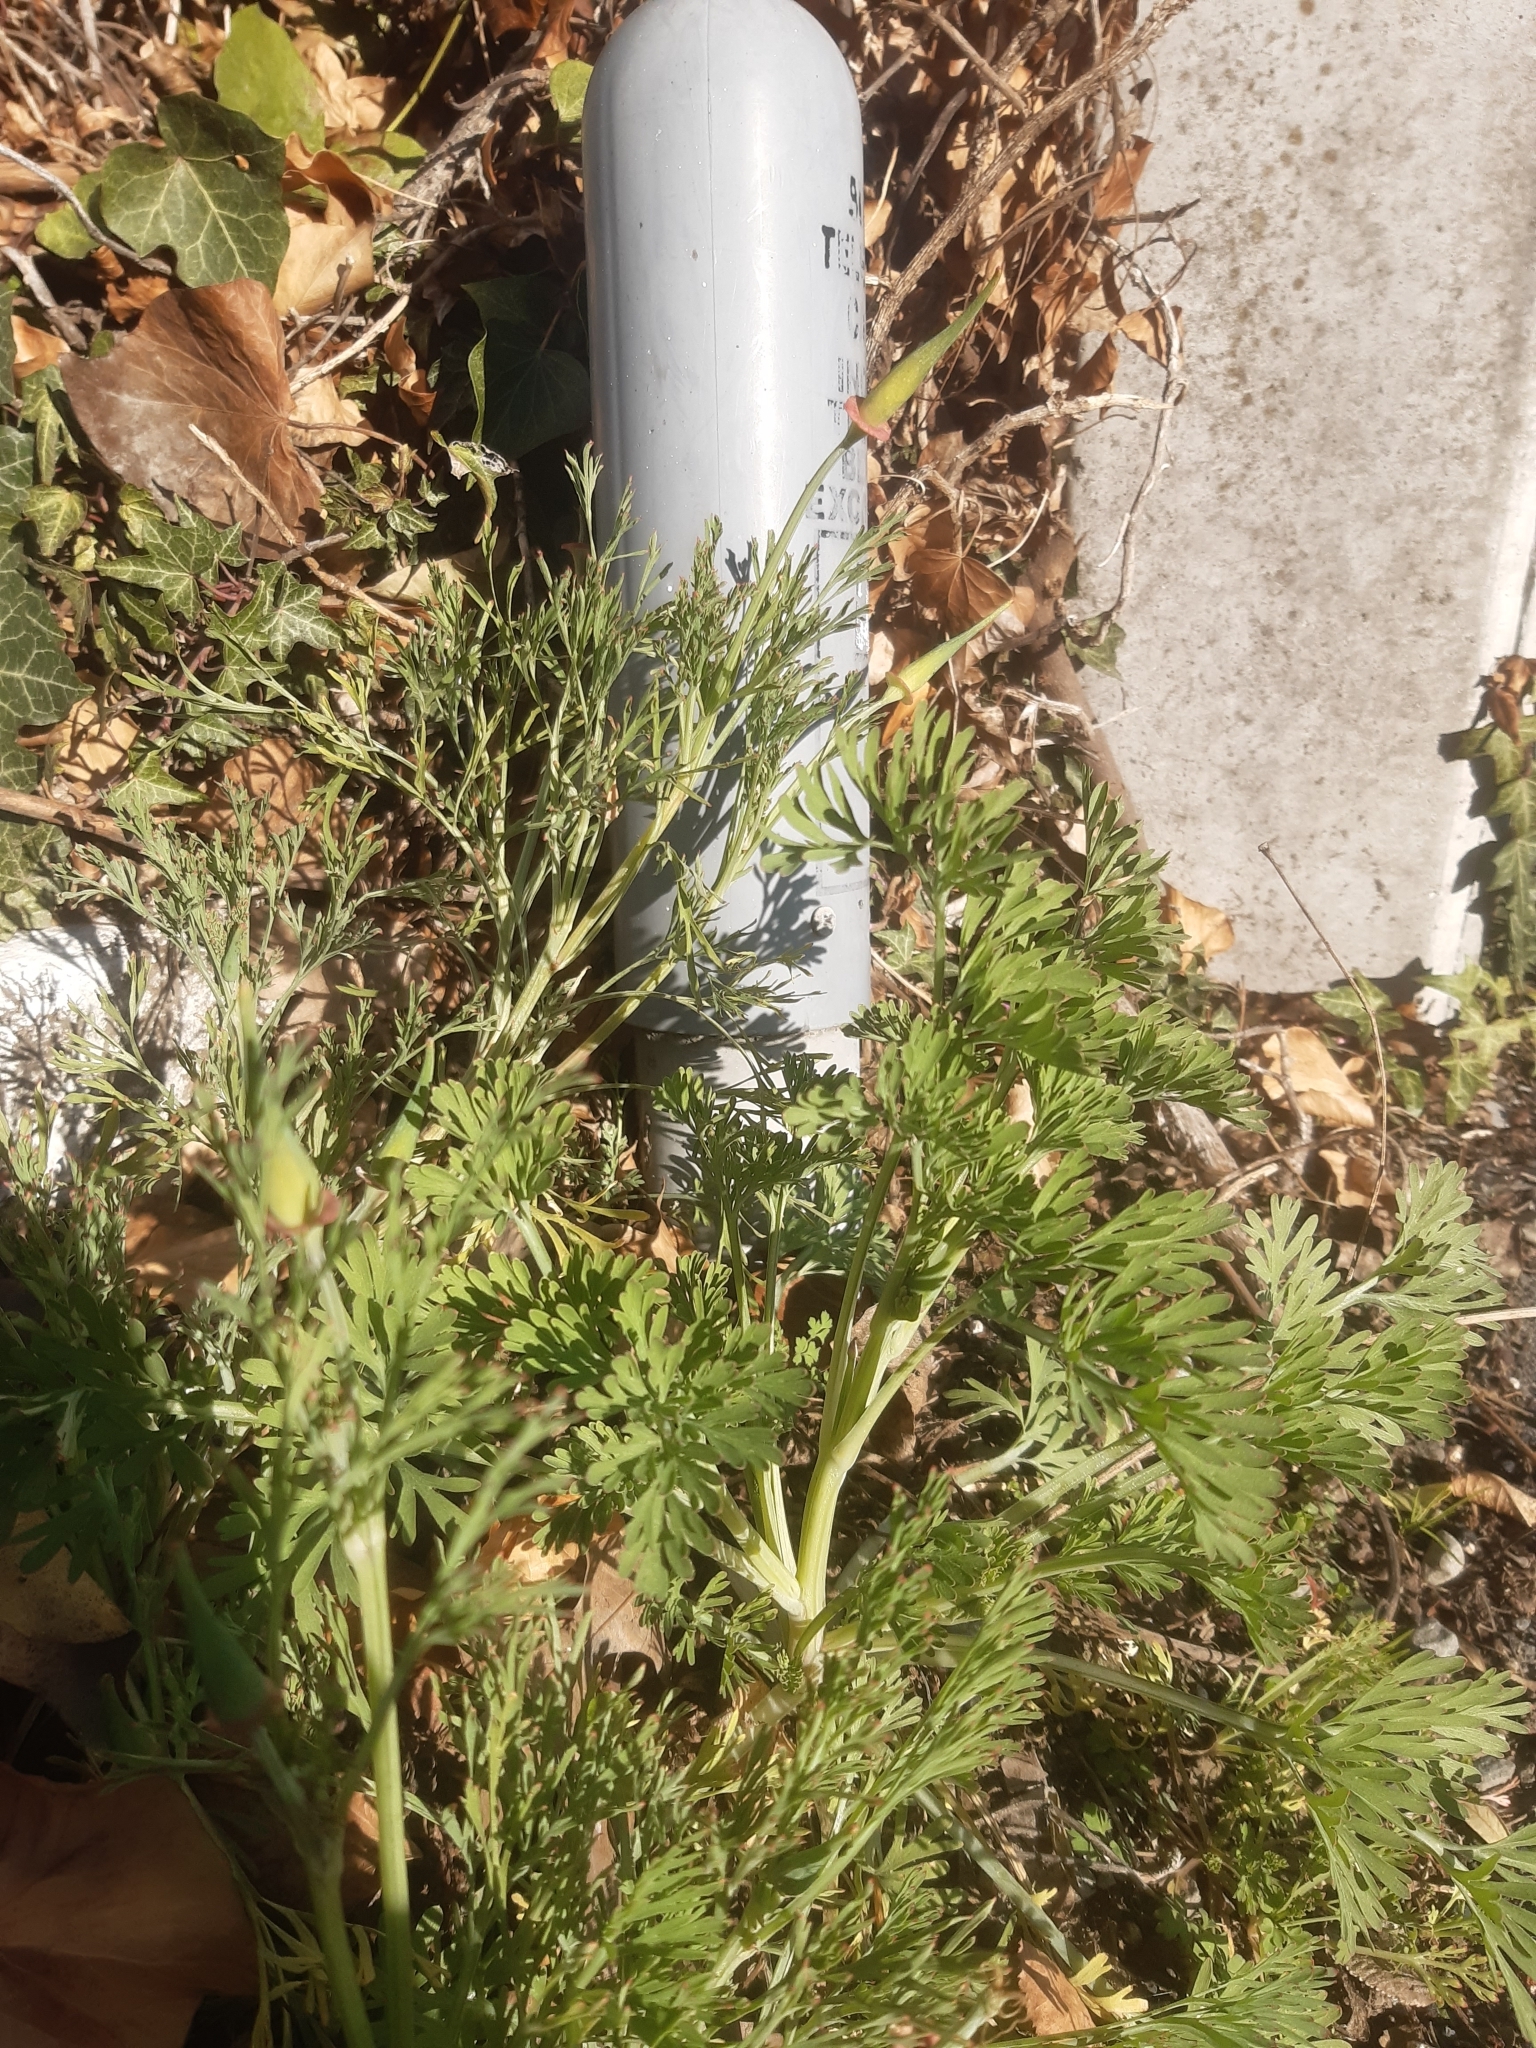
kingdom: Plantae
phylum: Tracheophyta
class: Magnoliopsida
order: Ranunculales
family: Papaveraceae
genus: Eschscholzia
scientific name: Eschscholzia californica
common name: California poppy
